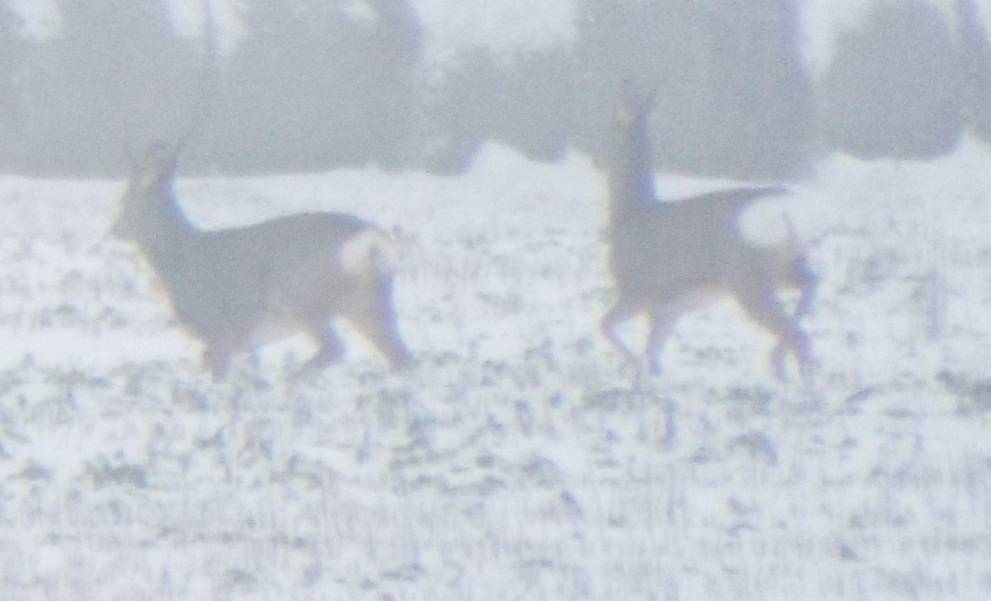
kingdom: Animalia
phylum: Chordata
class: Mammalia
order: Artiodactyla
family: Cervidae
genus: Capreolus
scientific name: Capreolus capreolus
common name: Western roe deer
